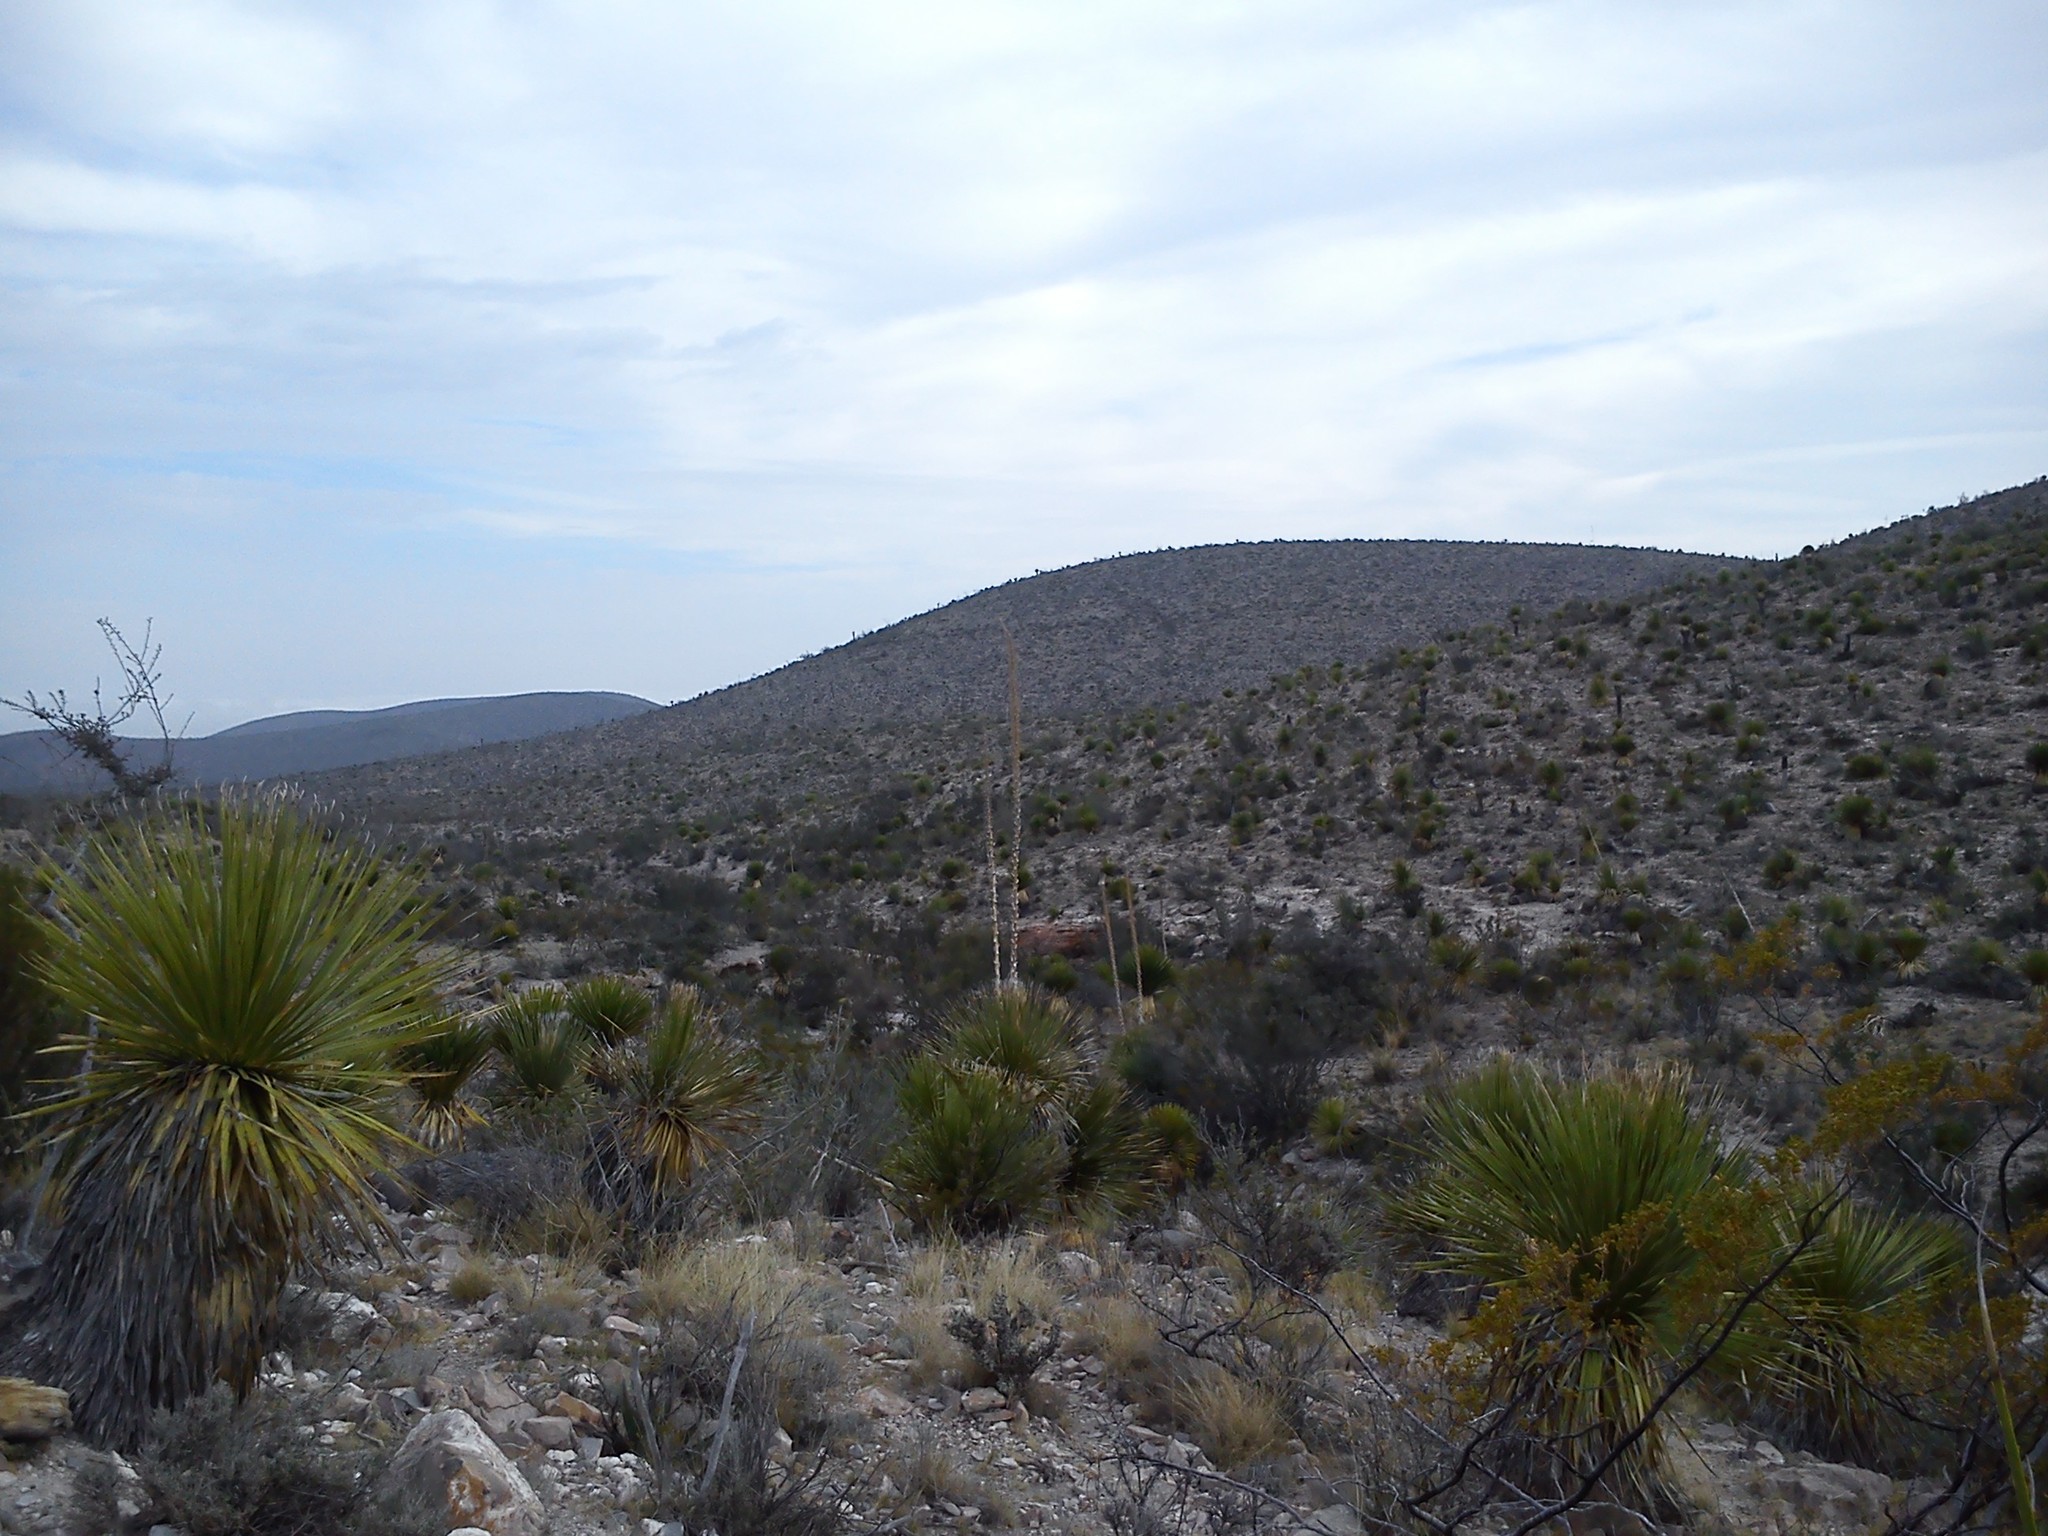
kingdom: Plantae
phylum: Tracheophyta
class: Liliopsida
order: Asparagales
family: Asparagaceae
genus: Dasylirion
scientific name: Dasylirion acrotrichum
